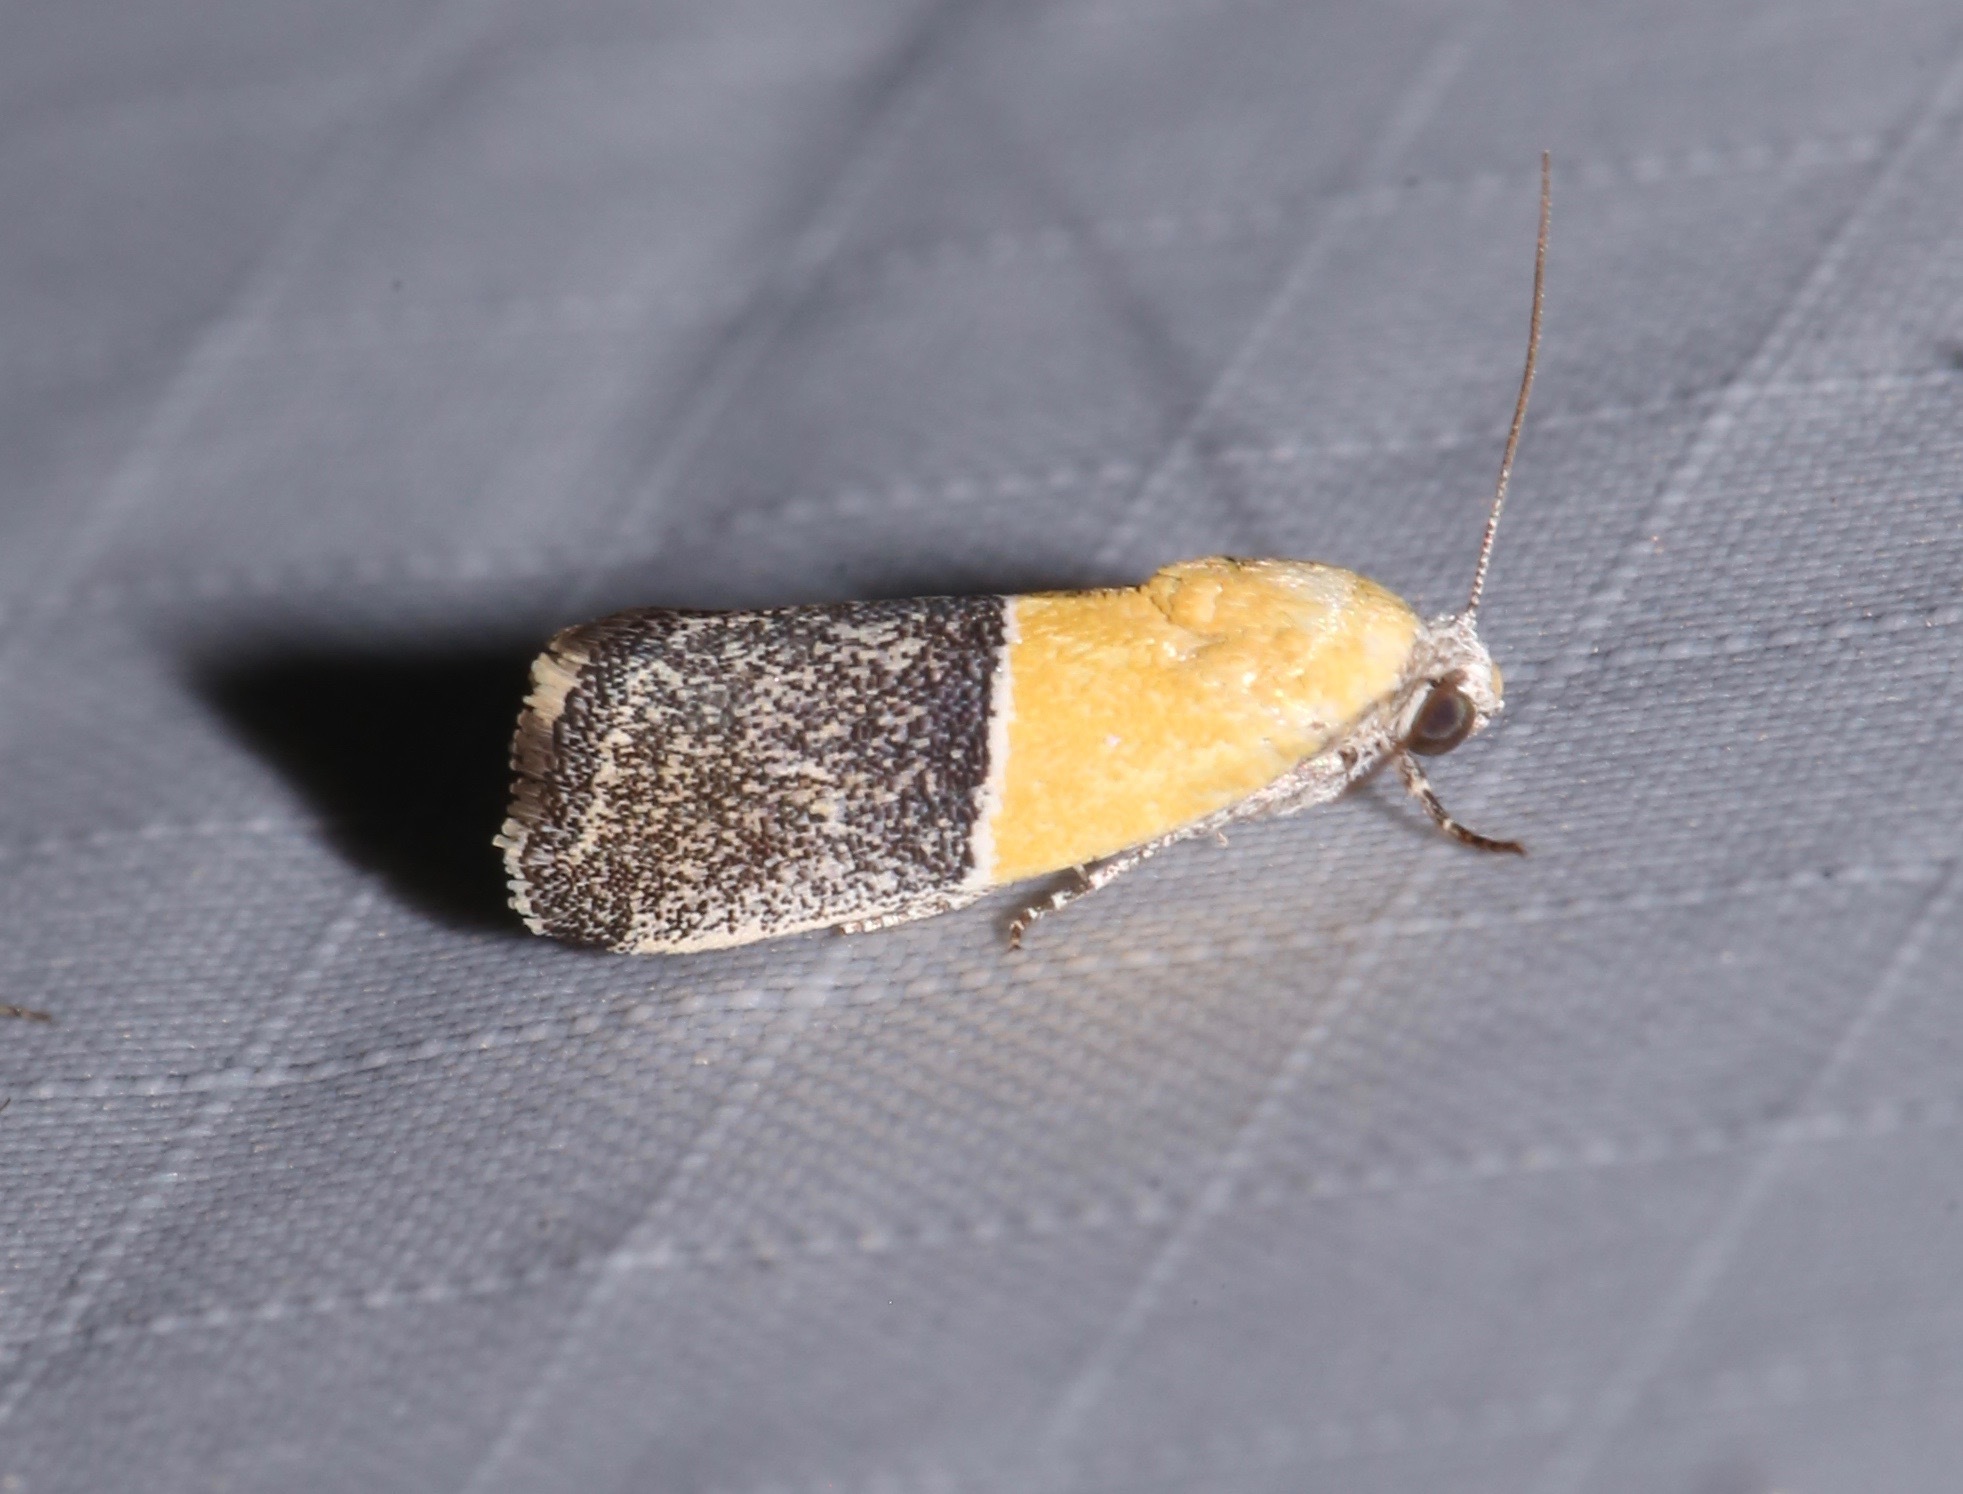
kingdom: Animalia
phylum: Arthropoda
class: Insecta
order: Lepidoptera
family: Noctuidae
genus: Acontia
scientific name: Acontia clausula
